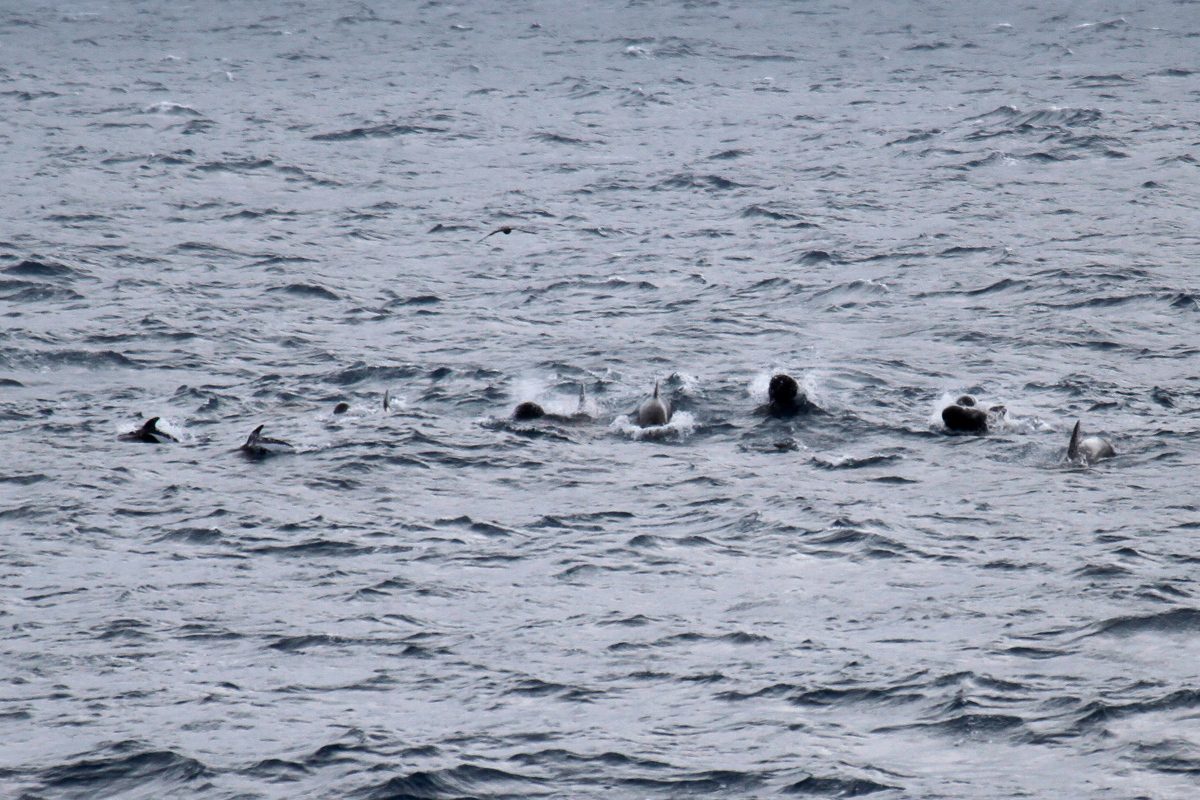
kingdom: Animalia
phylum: Chordata
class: Mammalia
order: Cetacea
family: Delphinidae
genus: Globicephala
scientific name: Globicephala melas
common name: Long-finned pilot whale
